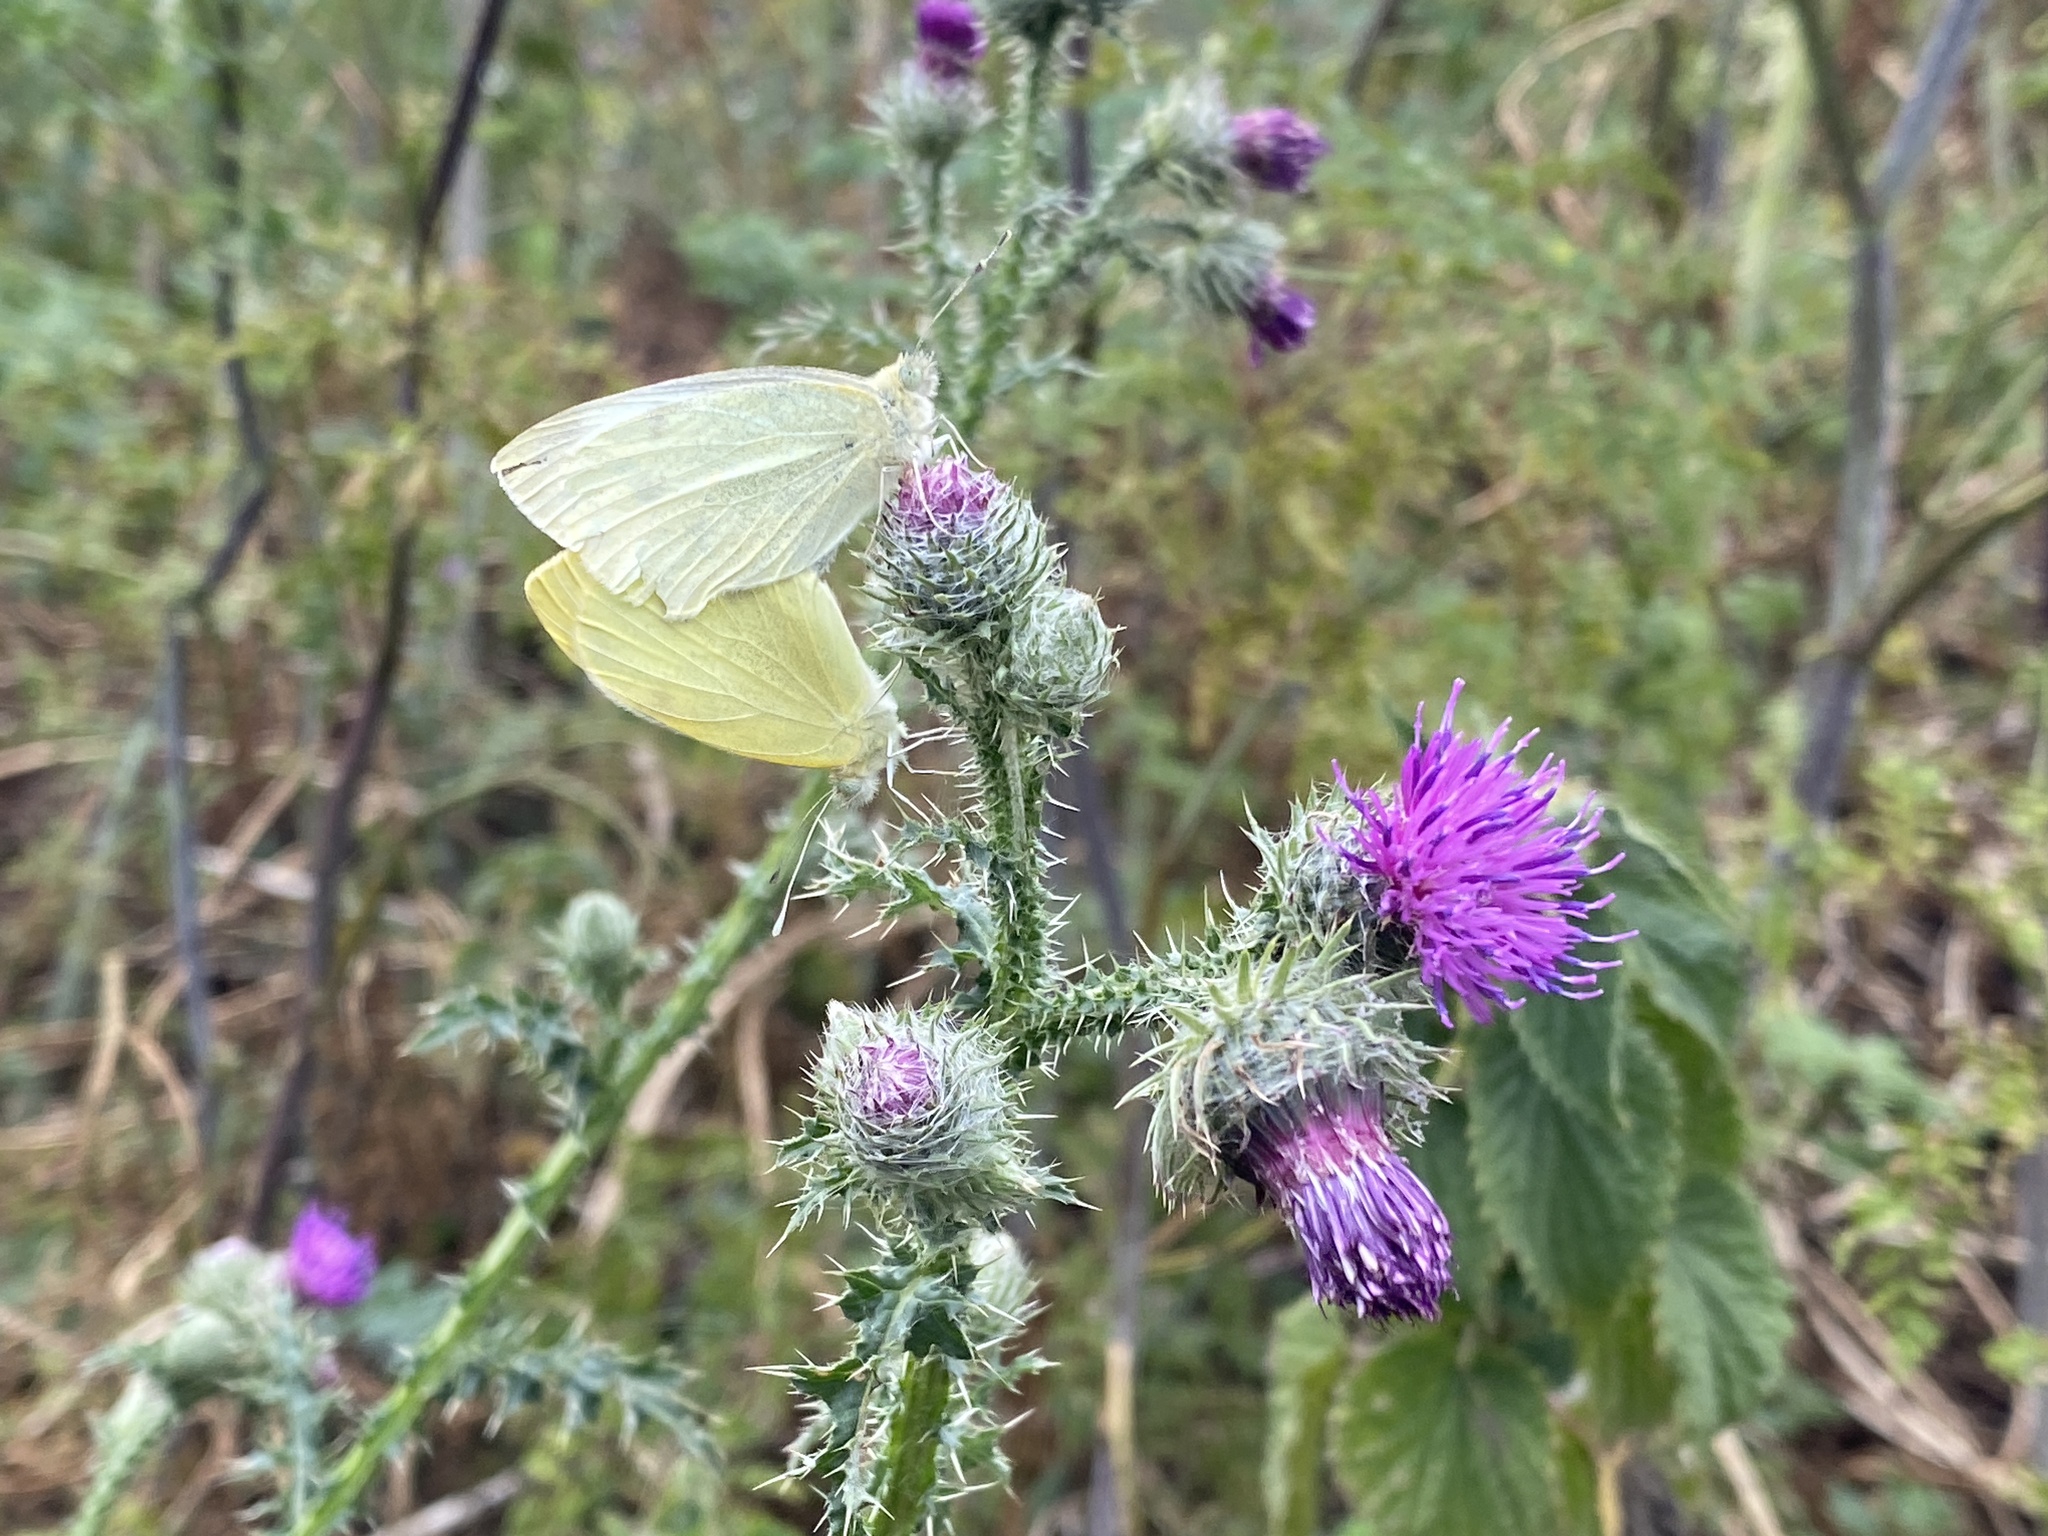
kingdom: Animalia
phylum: Arthropoda
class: Insecta
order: Lepidoptera
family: Pieridae
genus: Pieris
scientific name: Pieris rapae
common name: Small white
